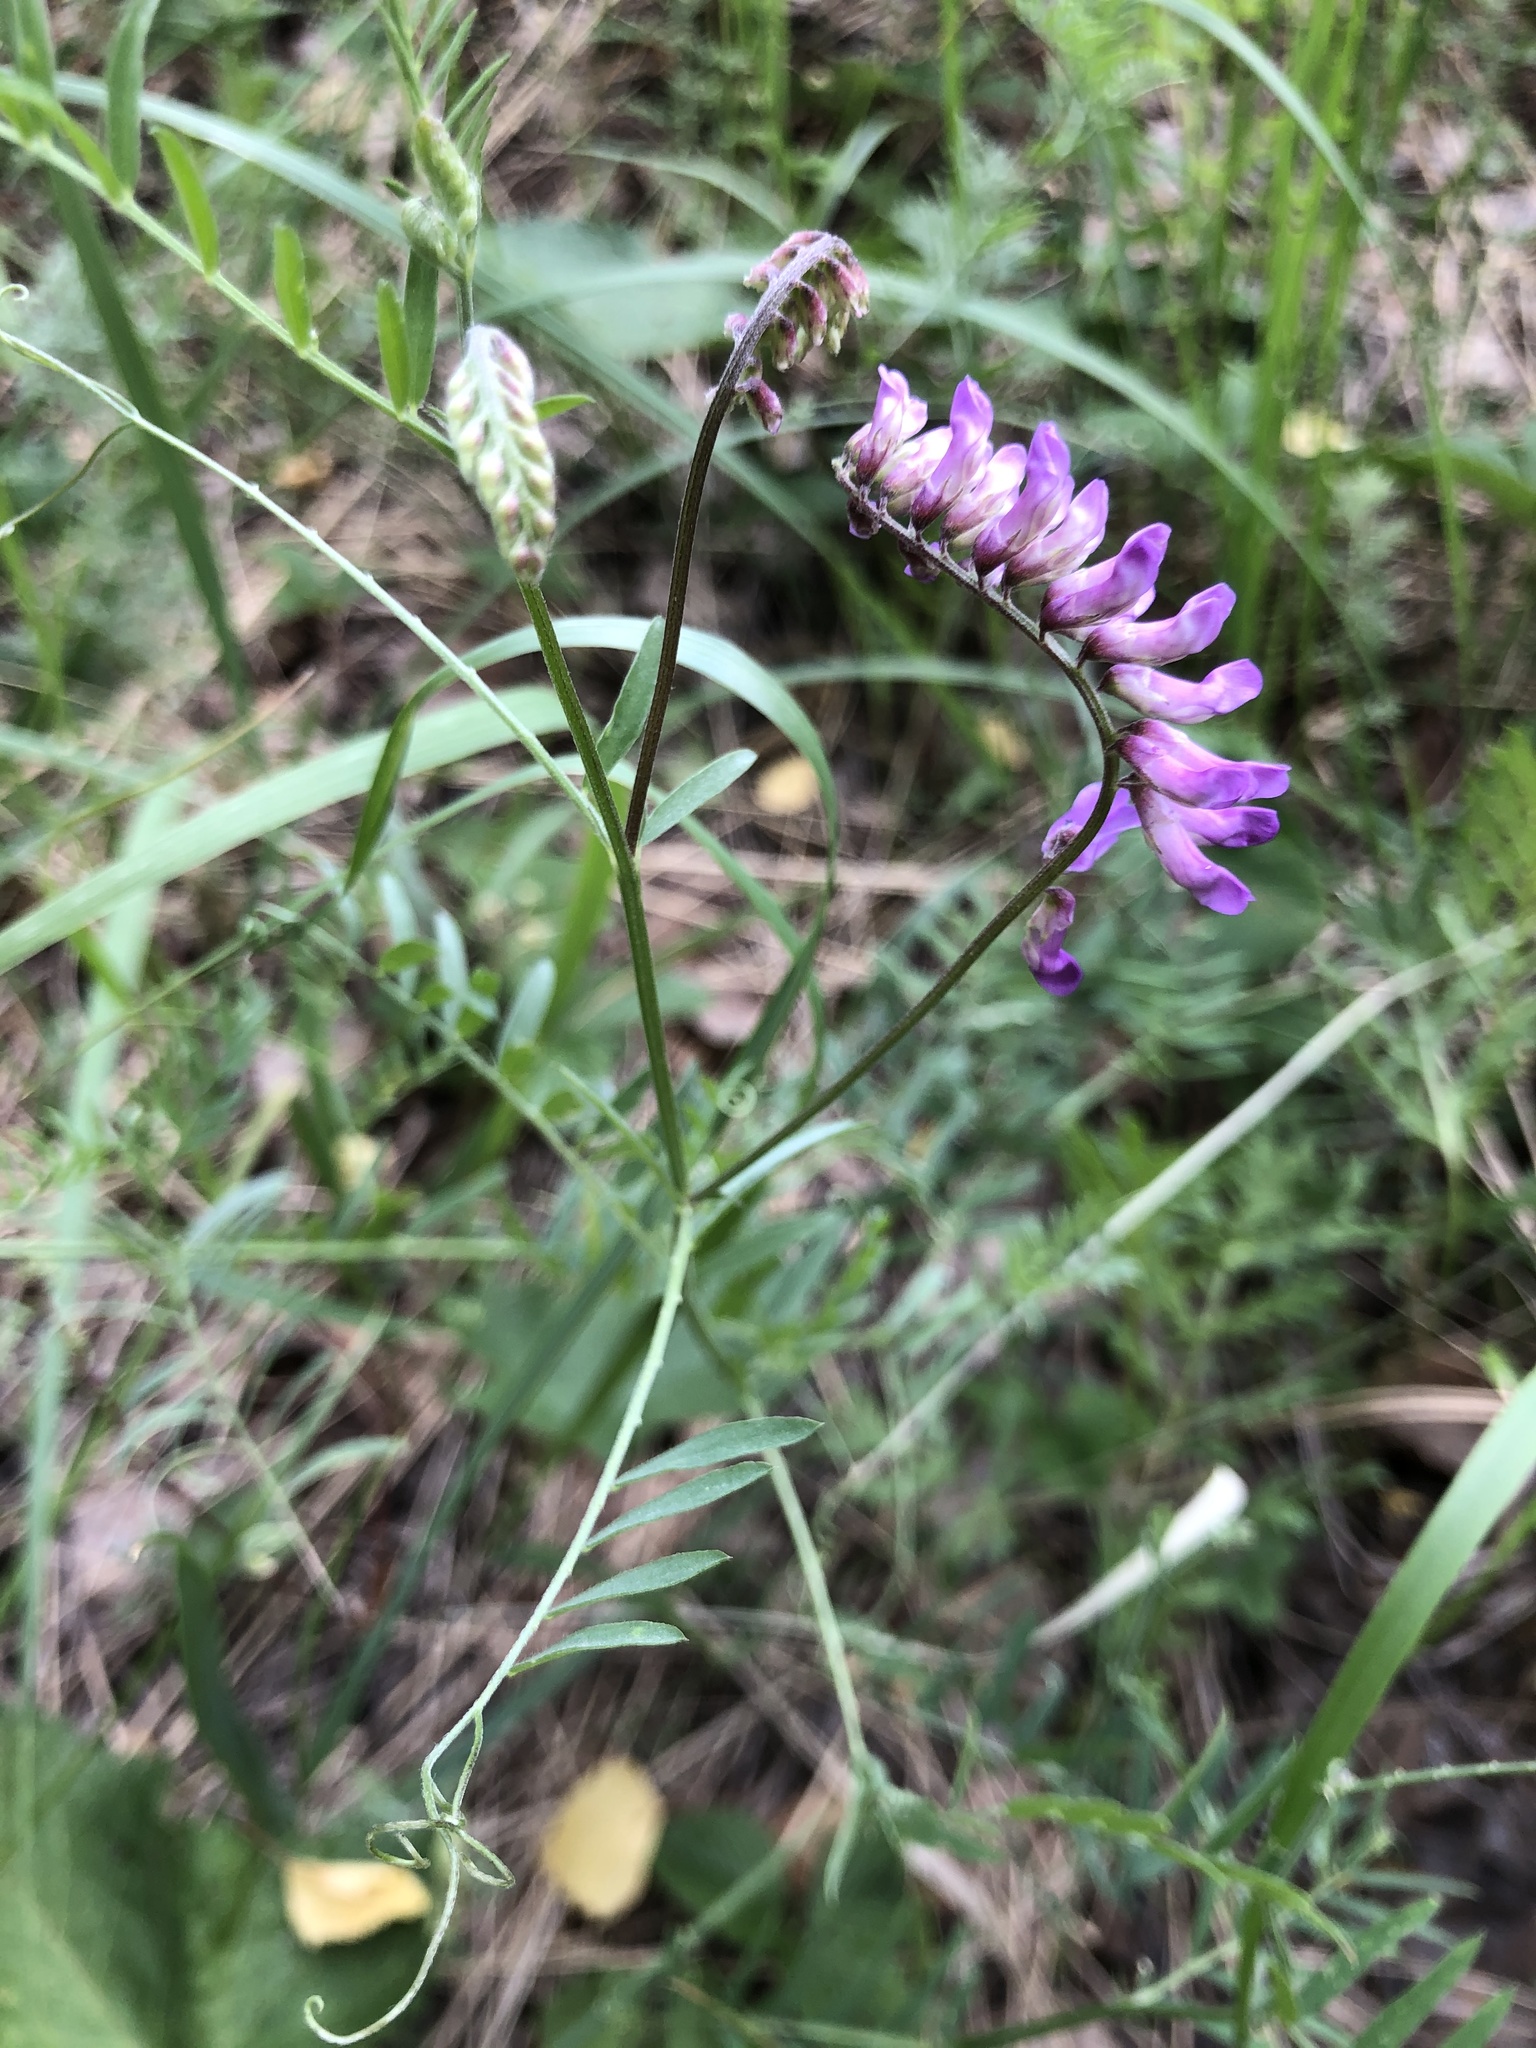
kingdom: Plantae
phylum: Tracheophyta
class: Magnoliopsida
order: Fabales
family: Fabaceae
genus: Vicia
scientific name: Vicia cracca
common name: Bird vetch
